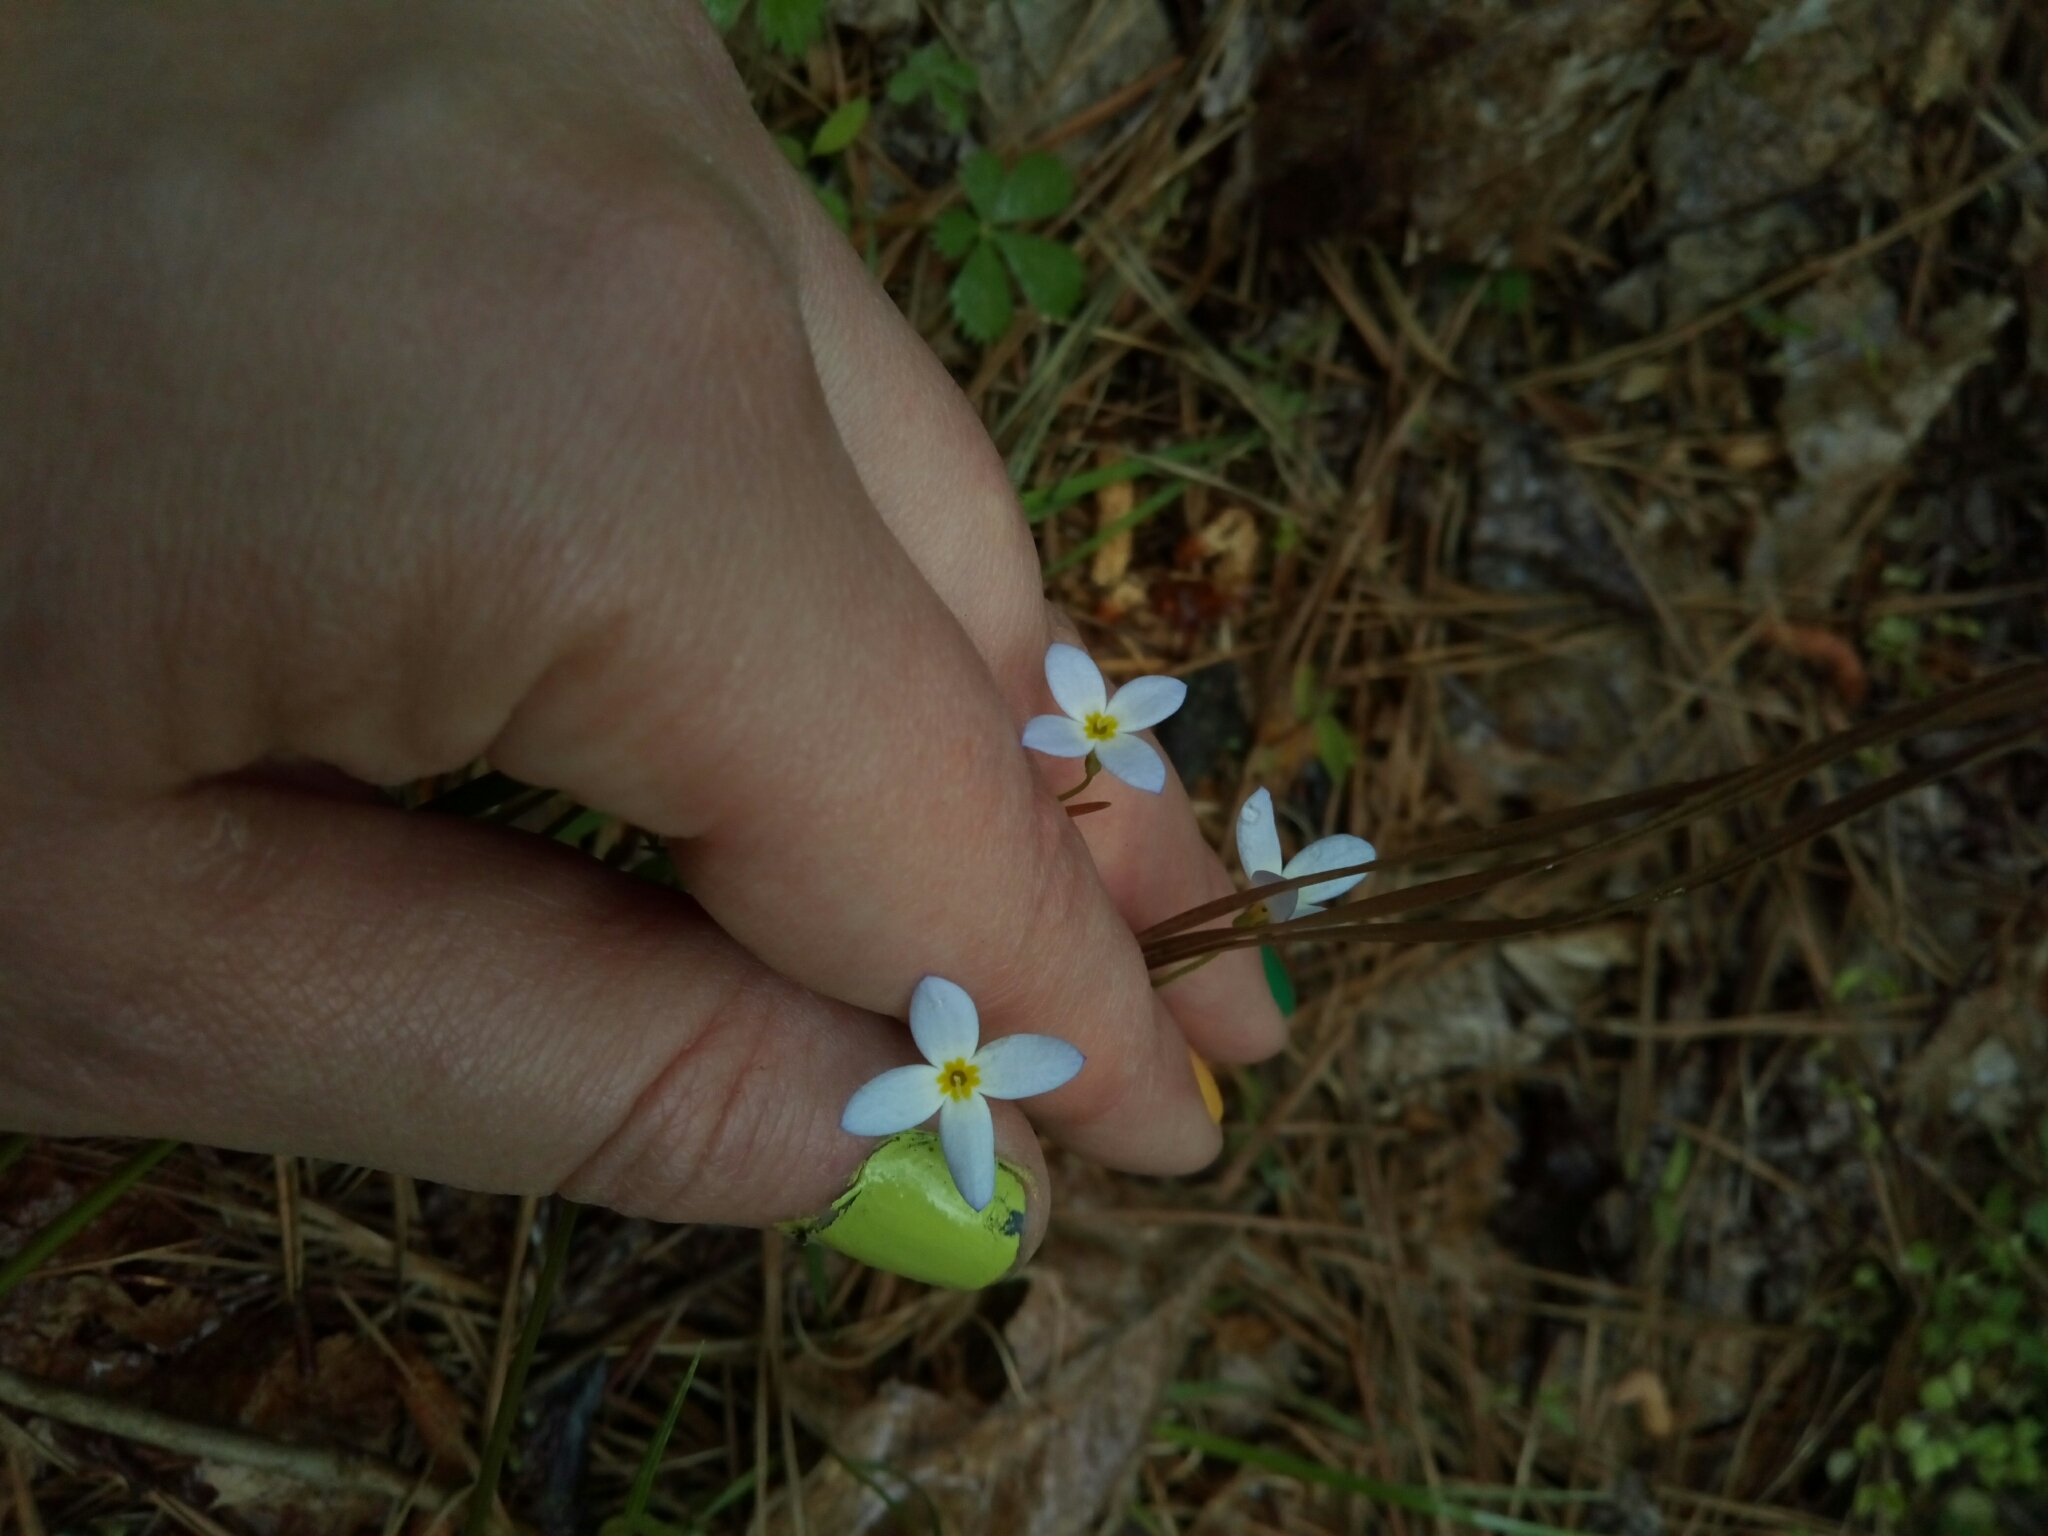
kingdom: Plantae
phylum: Tracheophyta
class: Magnoliopsida
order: Gentianales
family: Rubiaceae
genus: Houstonia
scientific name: Houstonia caerulea
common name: Bluets
